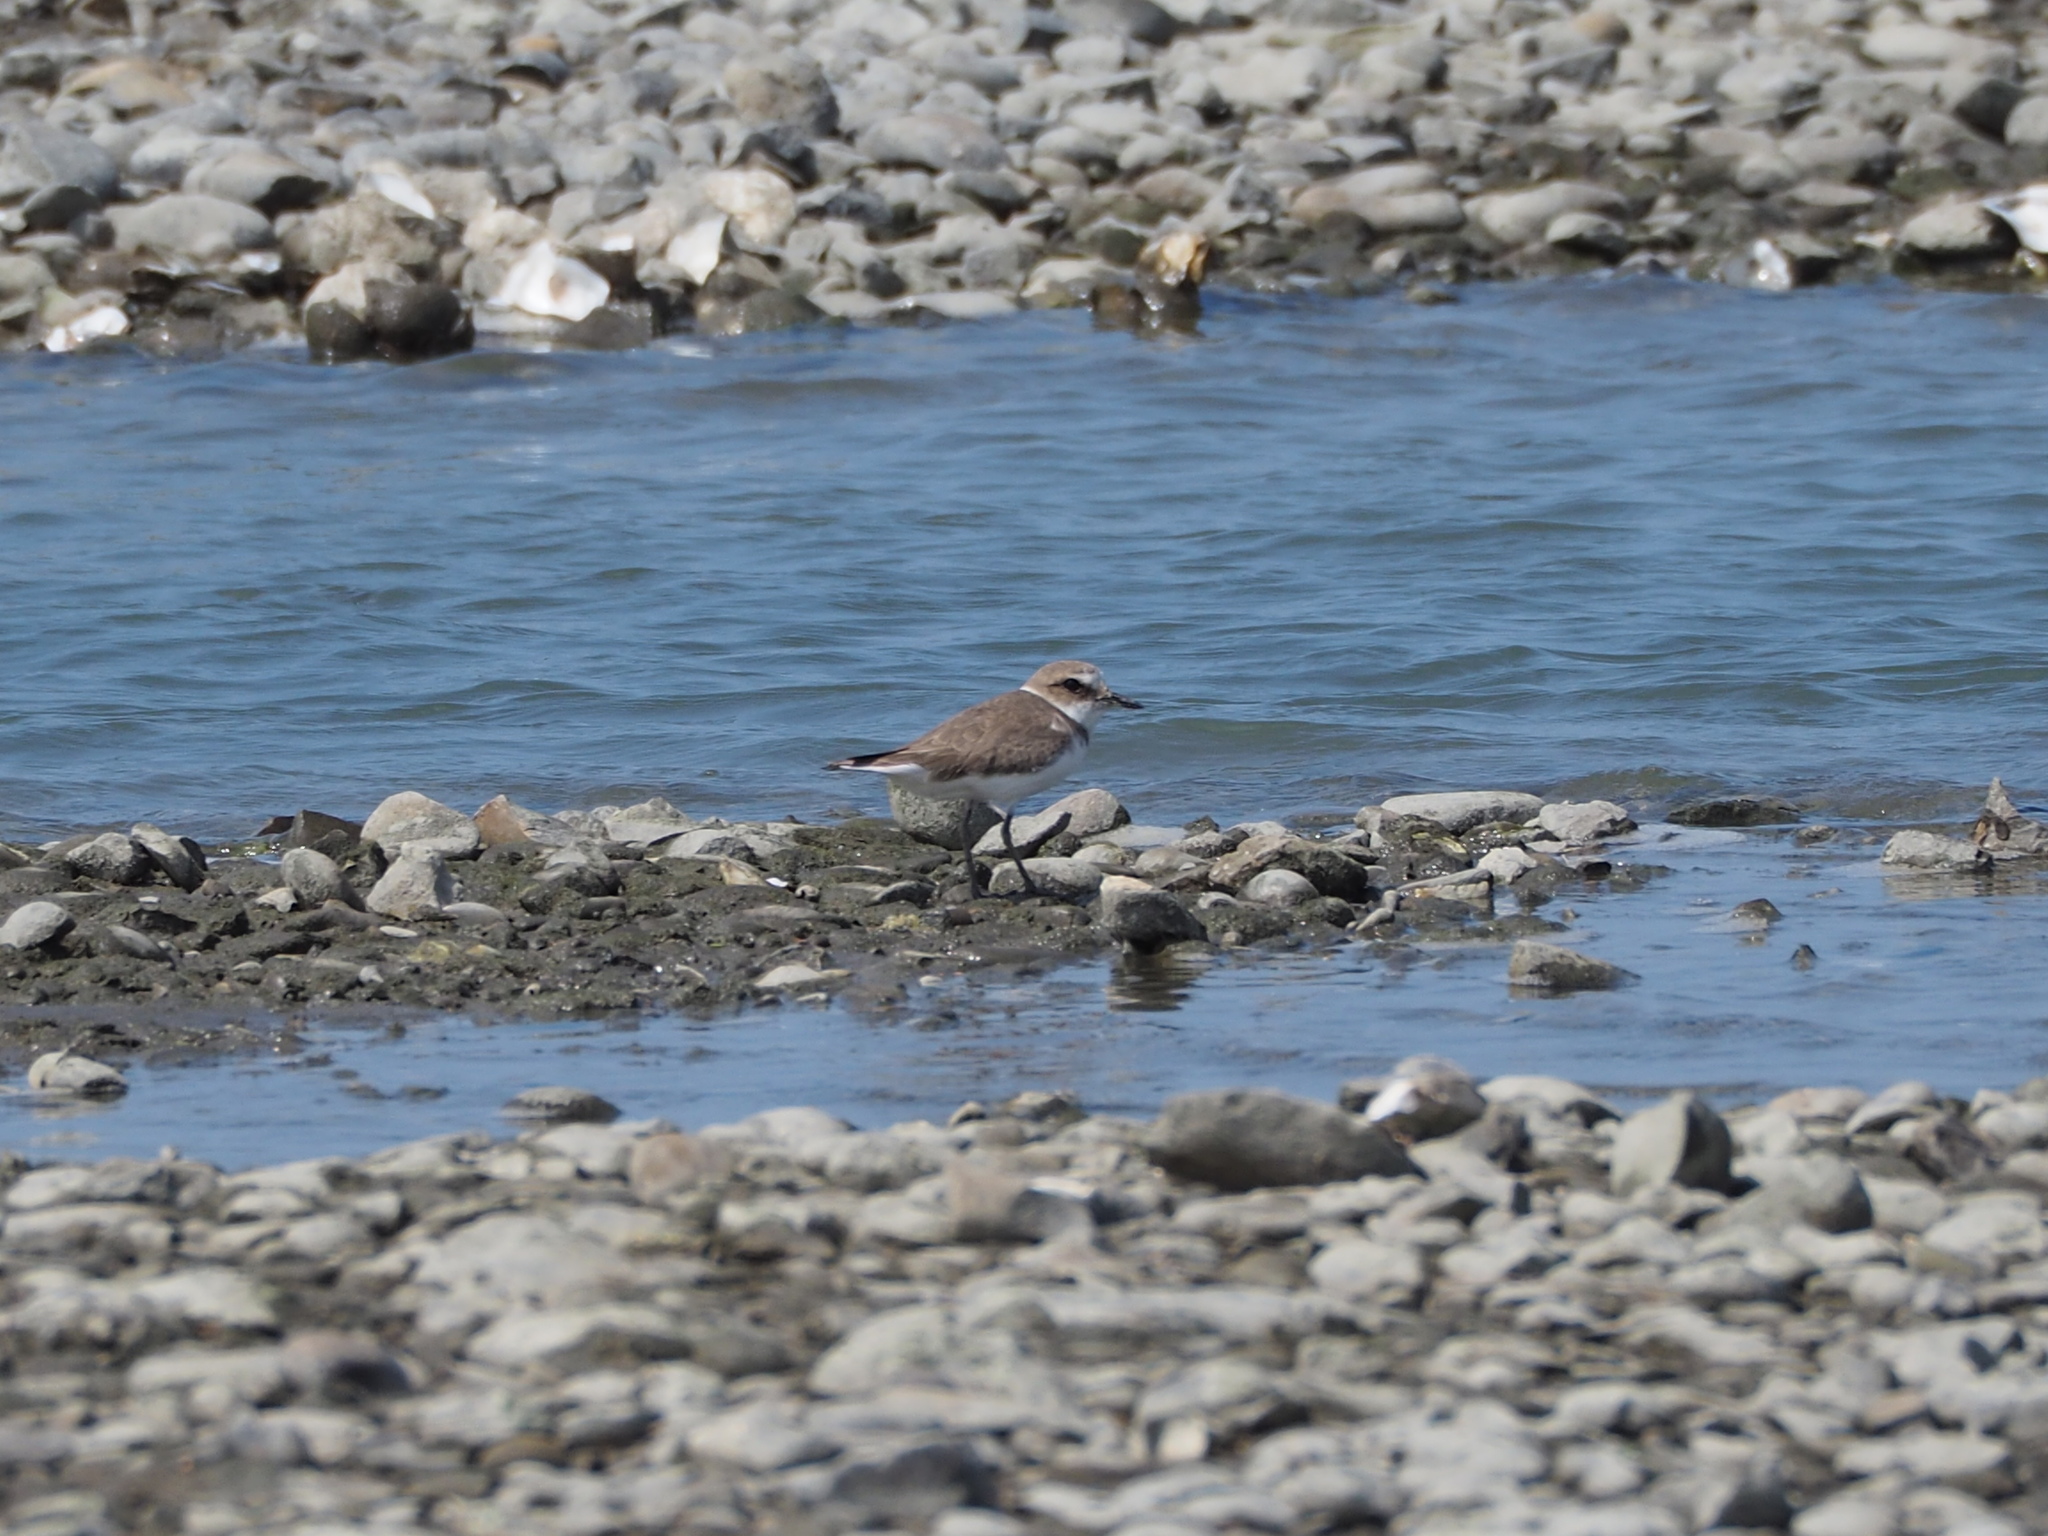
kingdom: Animalia
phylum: Chordata
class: Aves
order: Charadriiformes
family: Charadriidae
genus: Charadrius
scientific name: Charadrius alexandrinus
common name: Kentish plover
